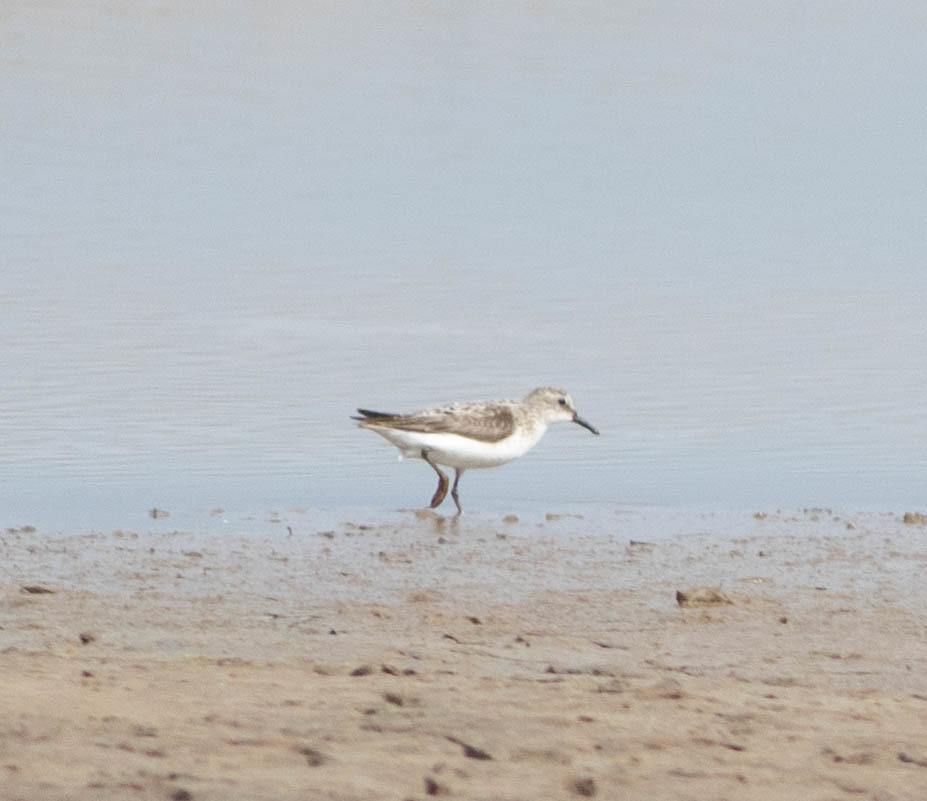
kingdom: Animalia
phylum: Chordata
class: Aves
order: Charadriiformes
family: Scolopacidae
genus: Calidris
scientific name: Calidris pusilla
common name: Semipalmated sandpiper
